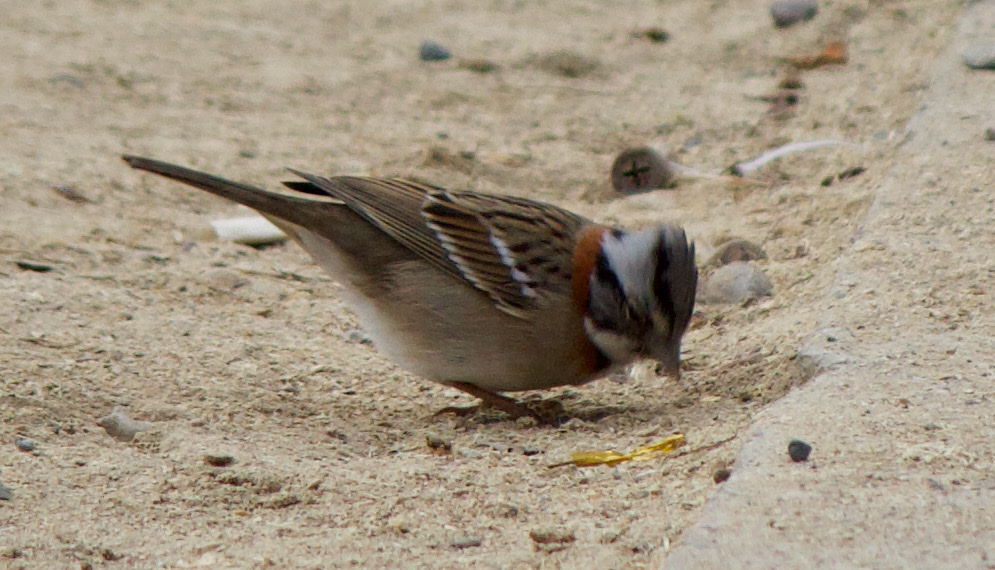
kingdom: Animalia
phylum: Chordata
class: Aves
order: Passeriformes
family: Passerellidae
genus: Zonotrichia
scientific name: Zonotrichia capensis
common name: Rufous-collared sparrow
